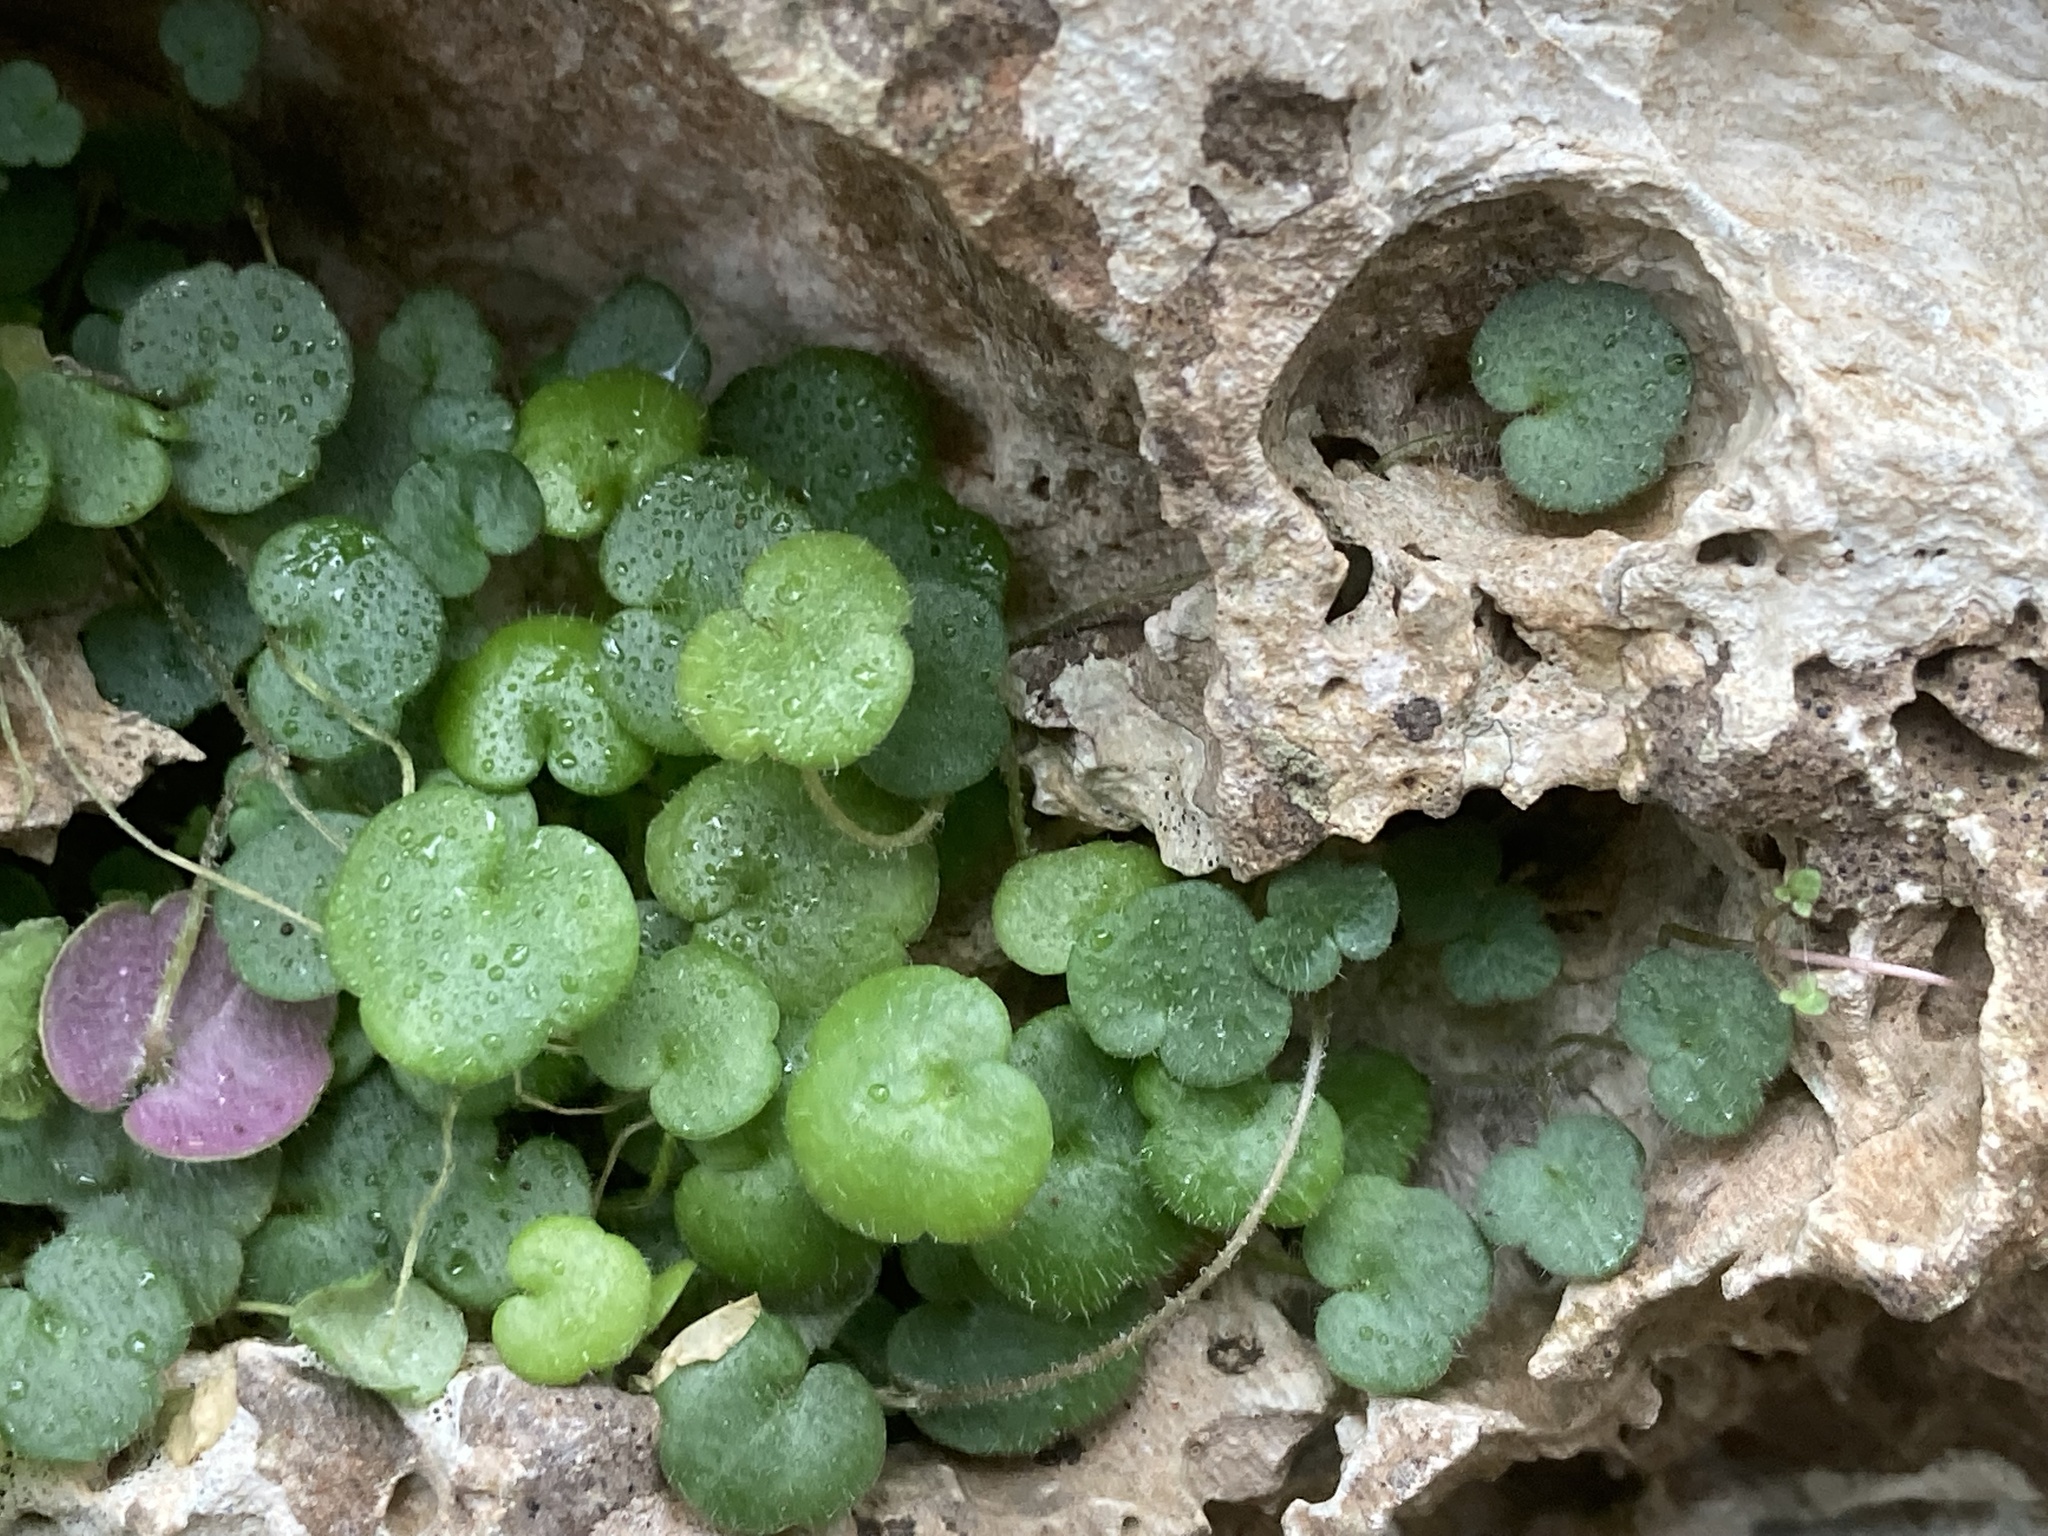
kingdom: Plantae
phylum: Tracheophyta
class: Magnoliopsida
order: Lamiales
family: Plantaginaceae
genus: Sibthorpia
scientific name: Sibthorpia africana
